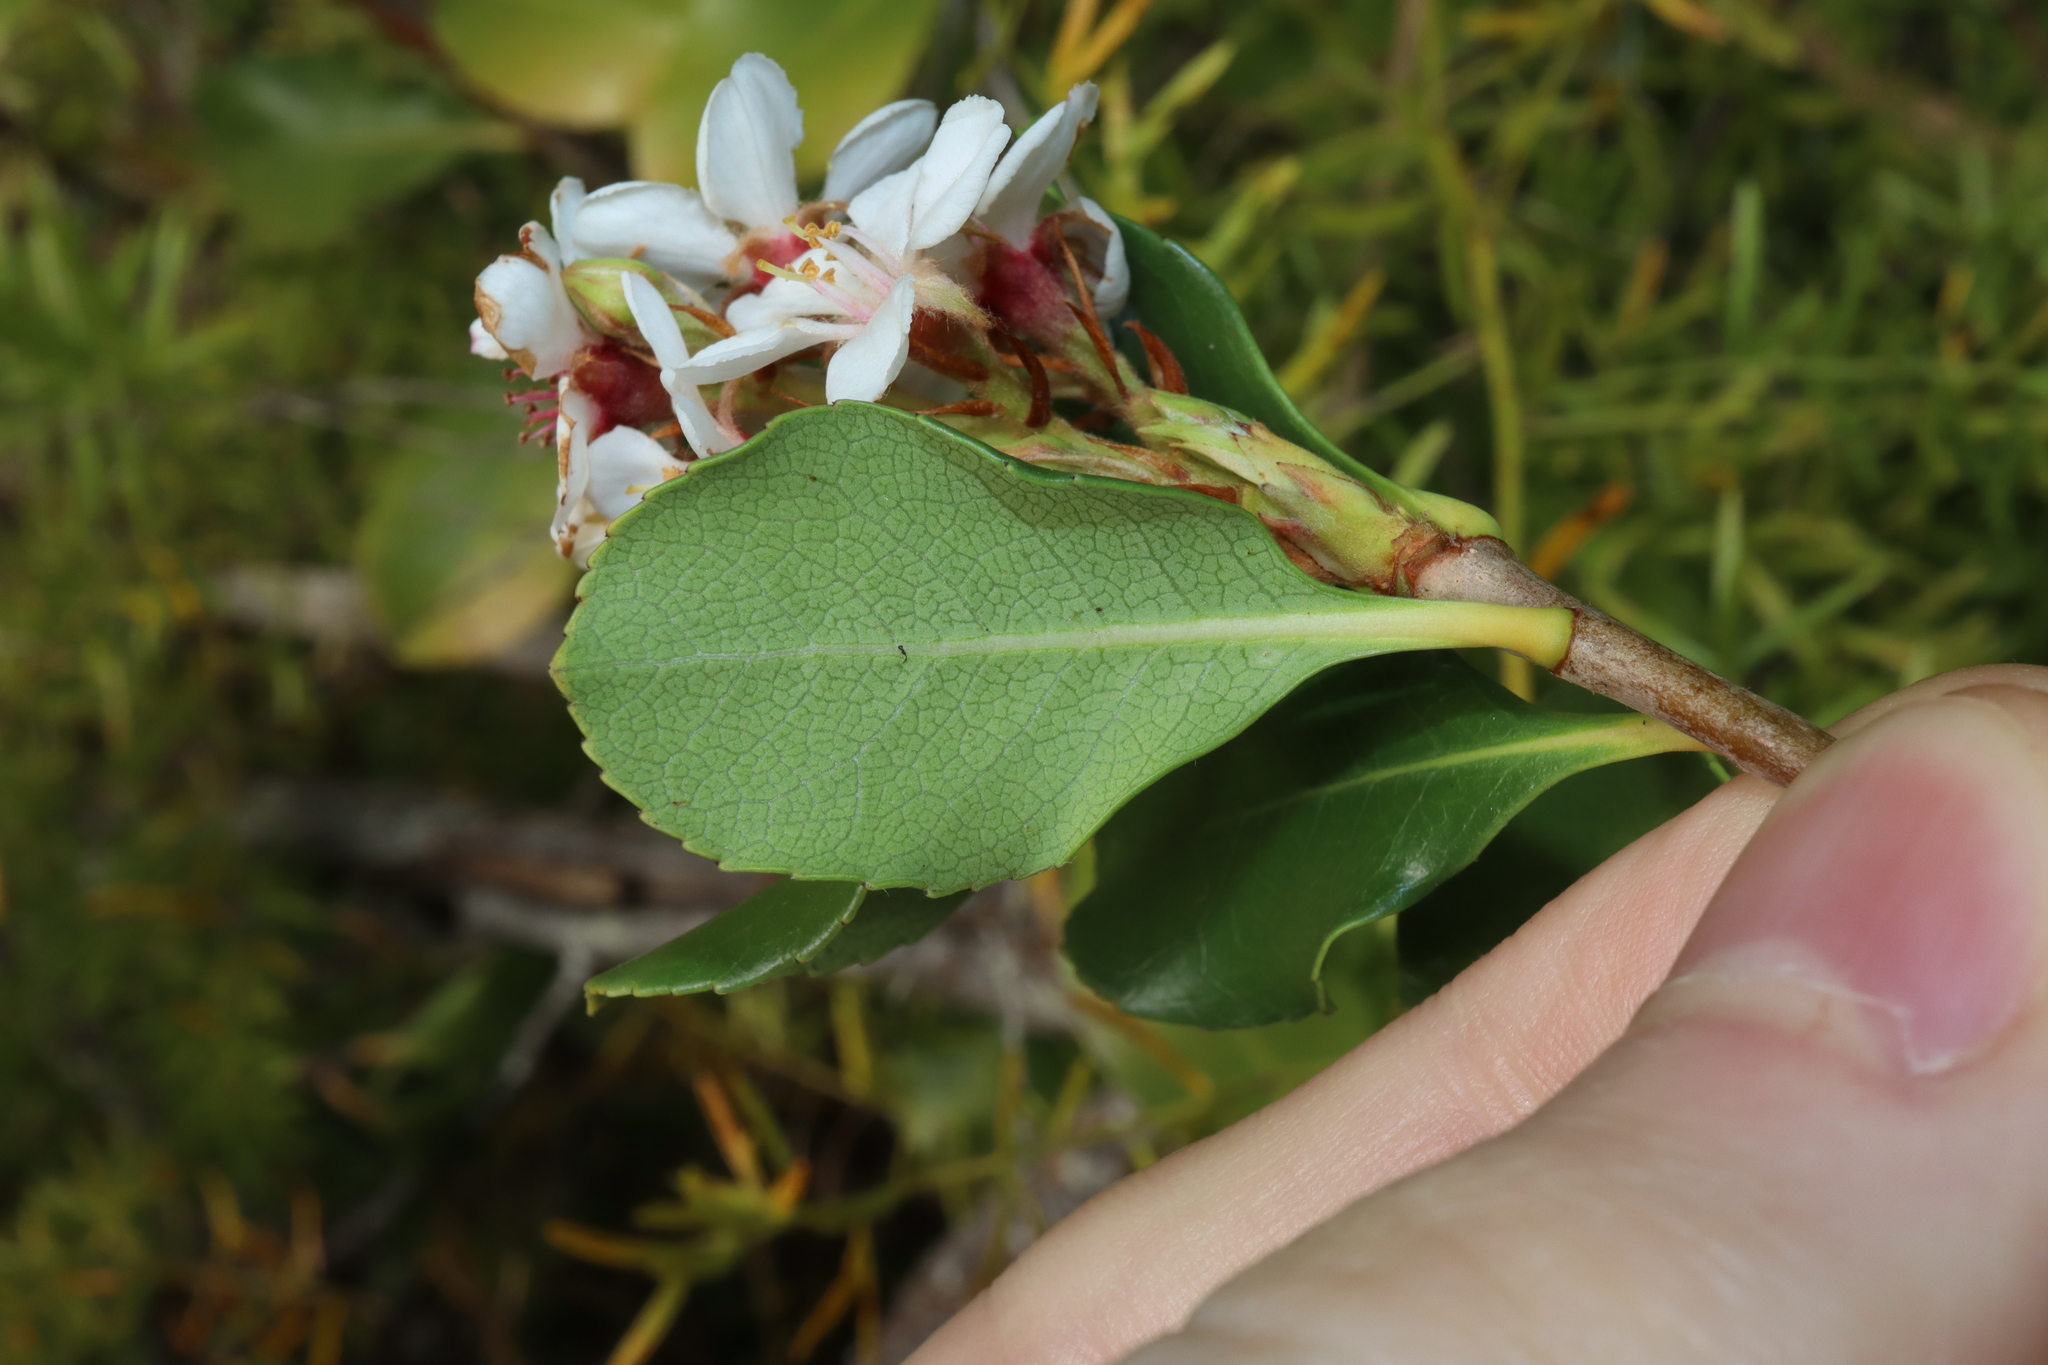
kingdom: Plantae
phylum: Tracheophyta
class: Magnoliopsida
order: Rosales
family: Rosaceae
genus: Rhaphiolepis
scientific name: Rhaphiolepis indica
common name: India-hawthorn
